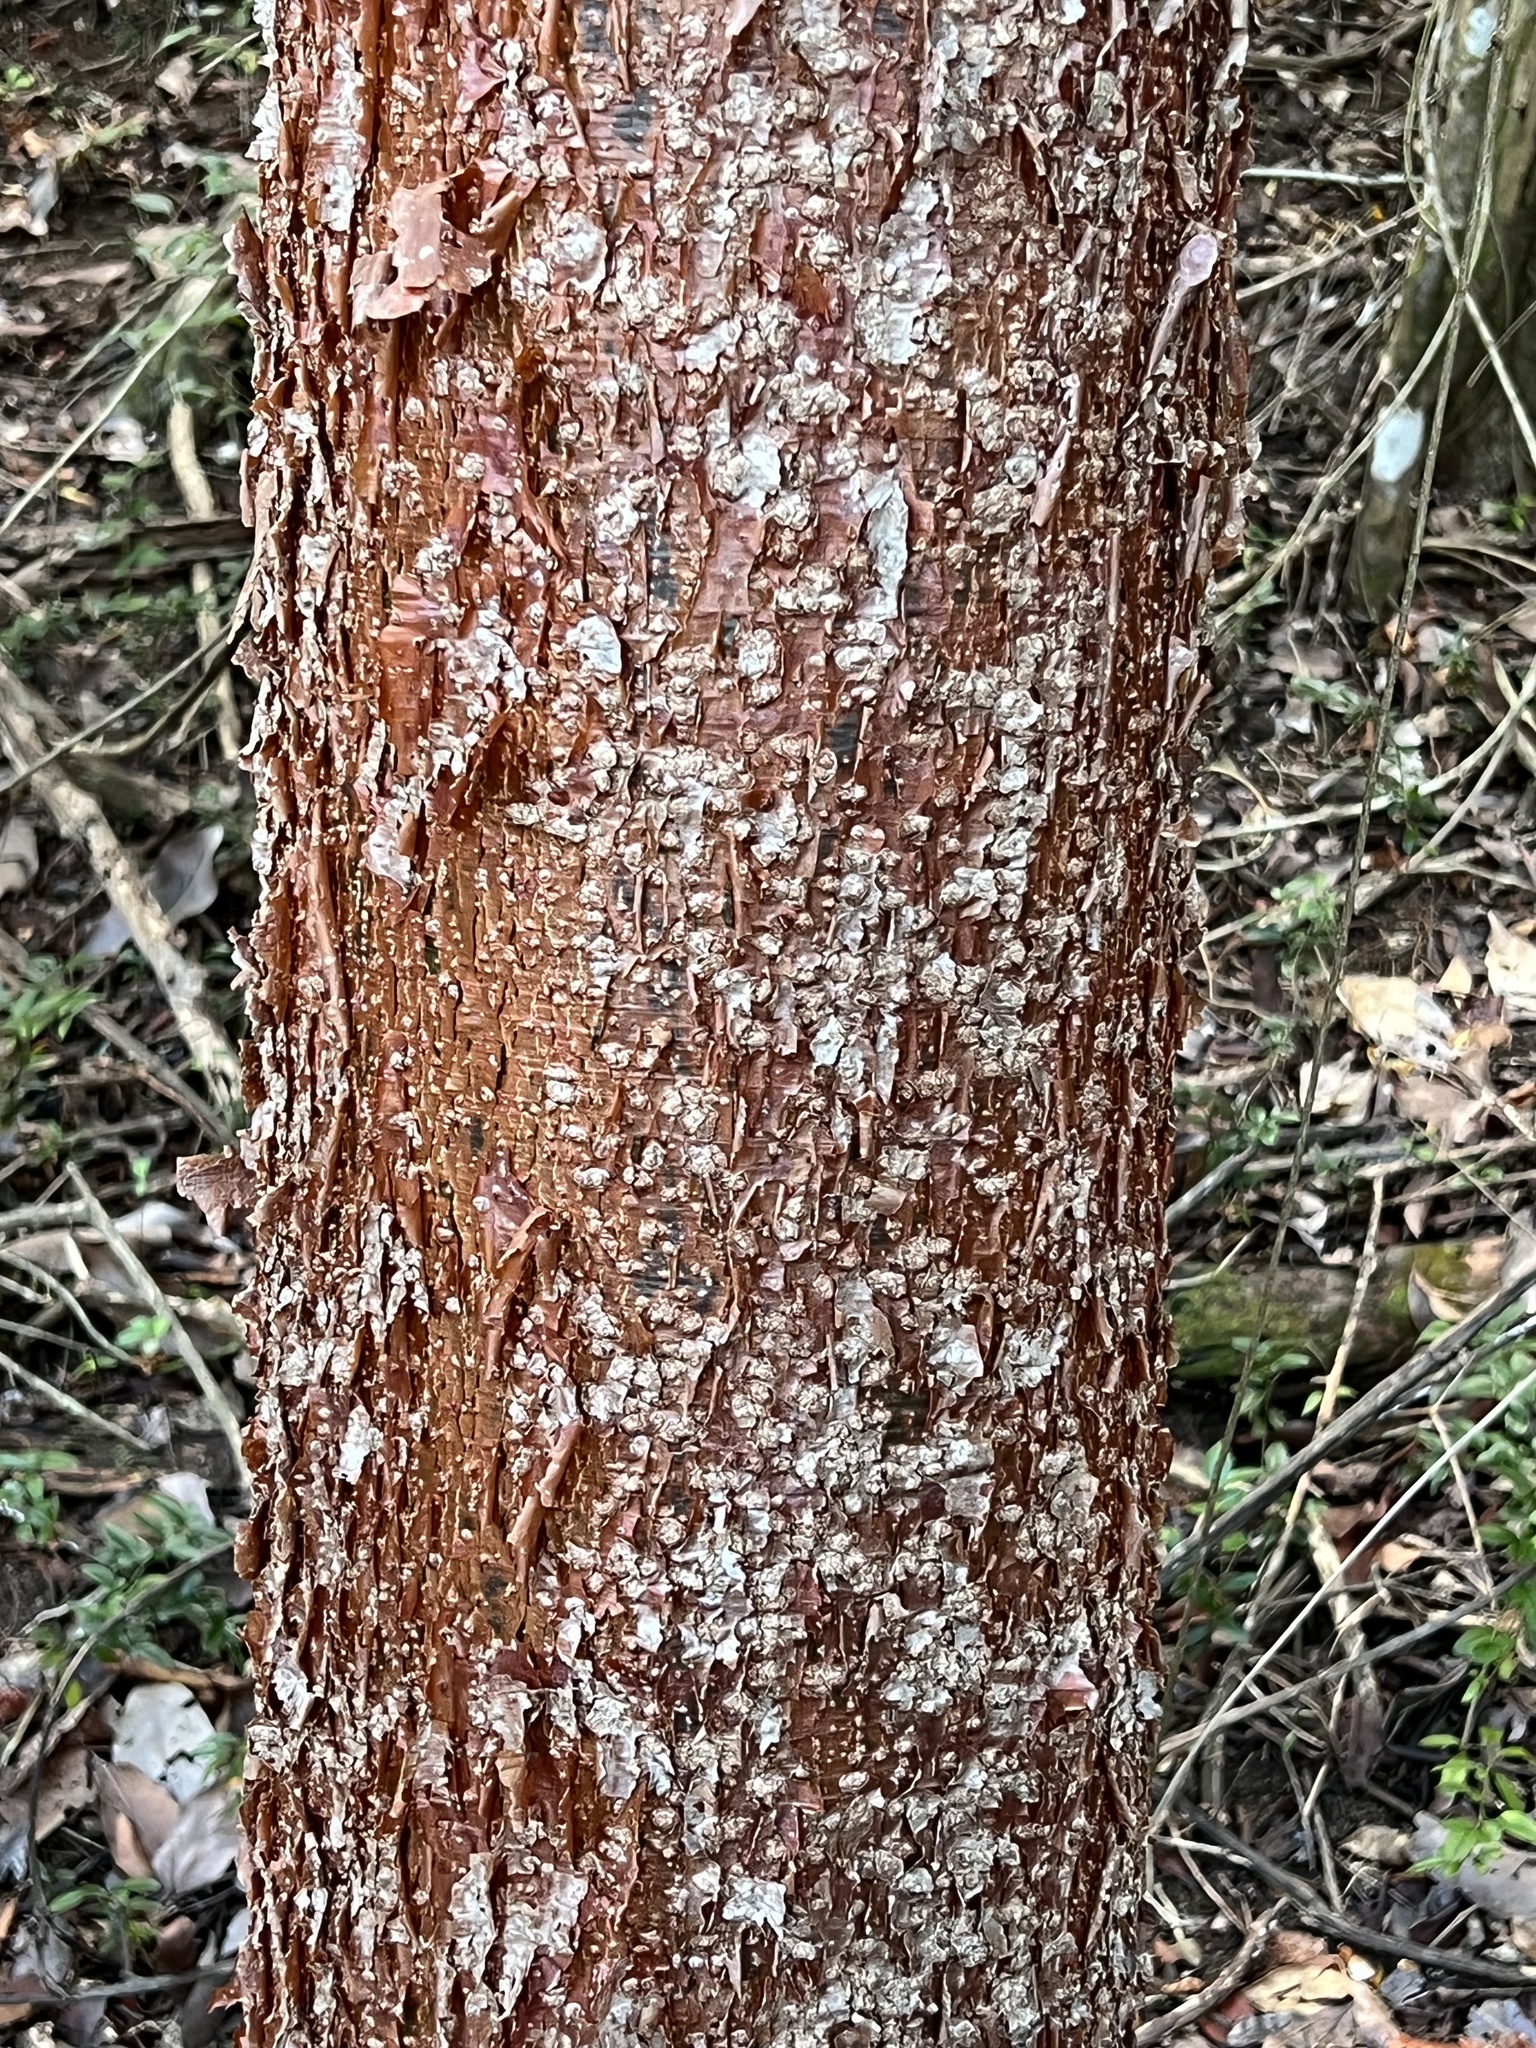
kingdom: Plantae
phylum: Tracheophyta
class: Magnoliopsida
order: Sapindales
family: Burseraceae
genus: Bursera
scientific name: Bursera simaruba
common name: Turpentine tree
